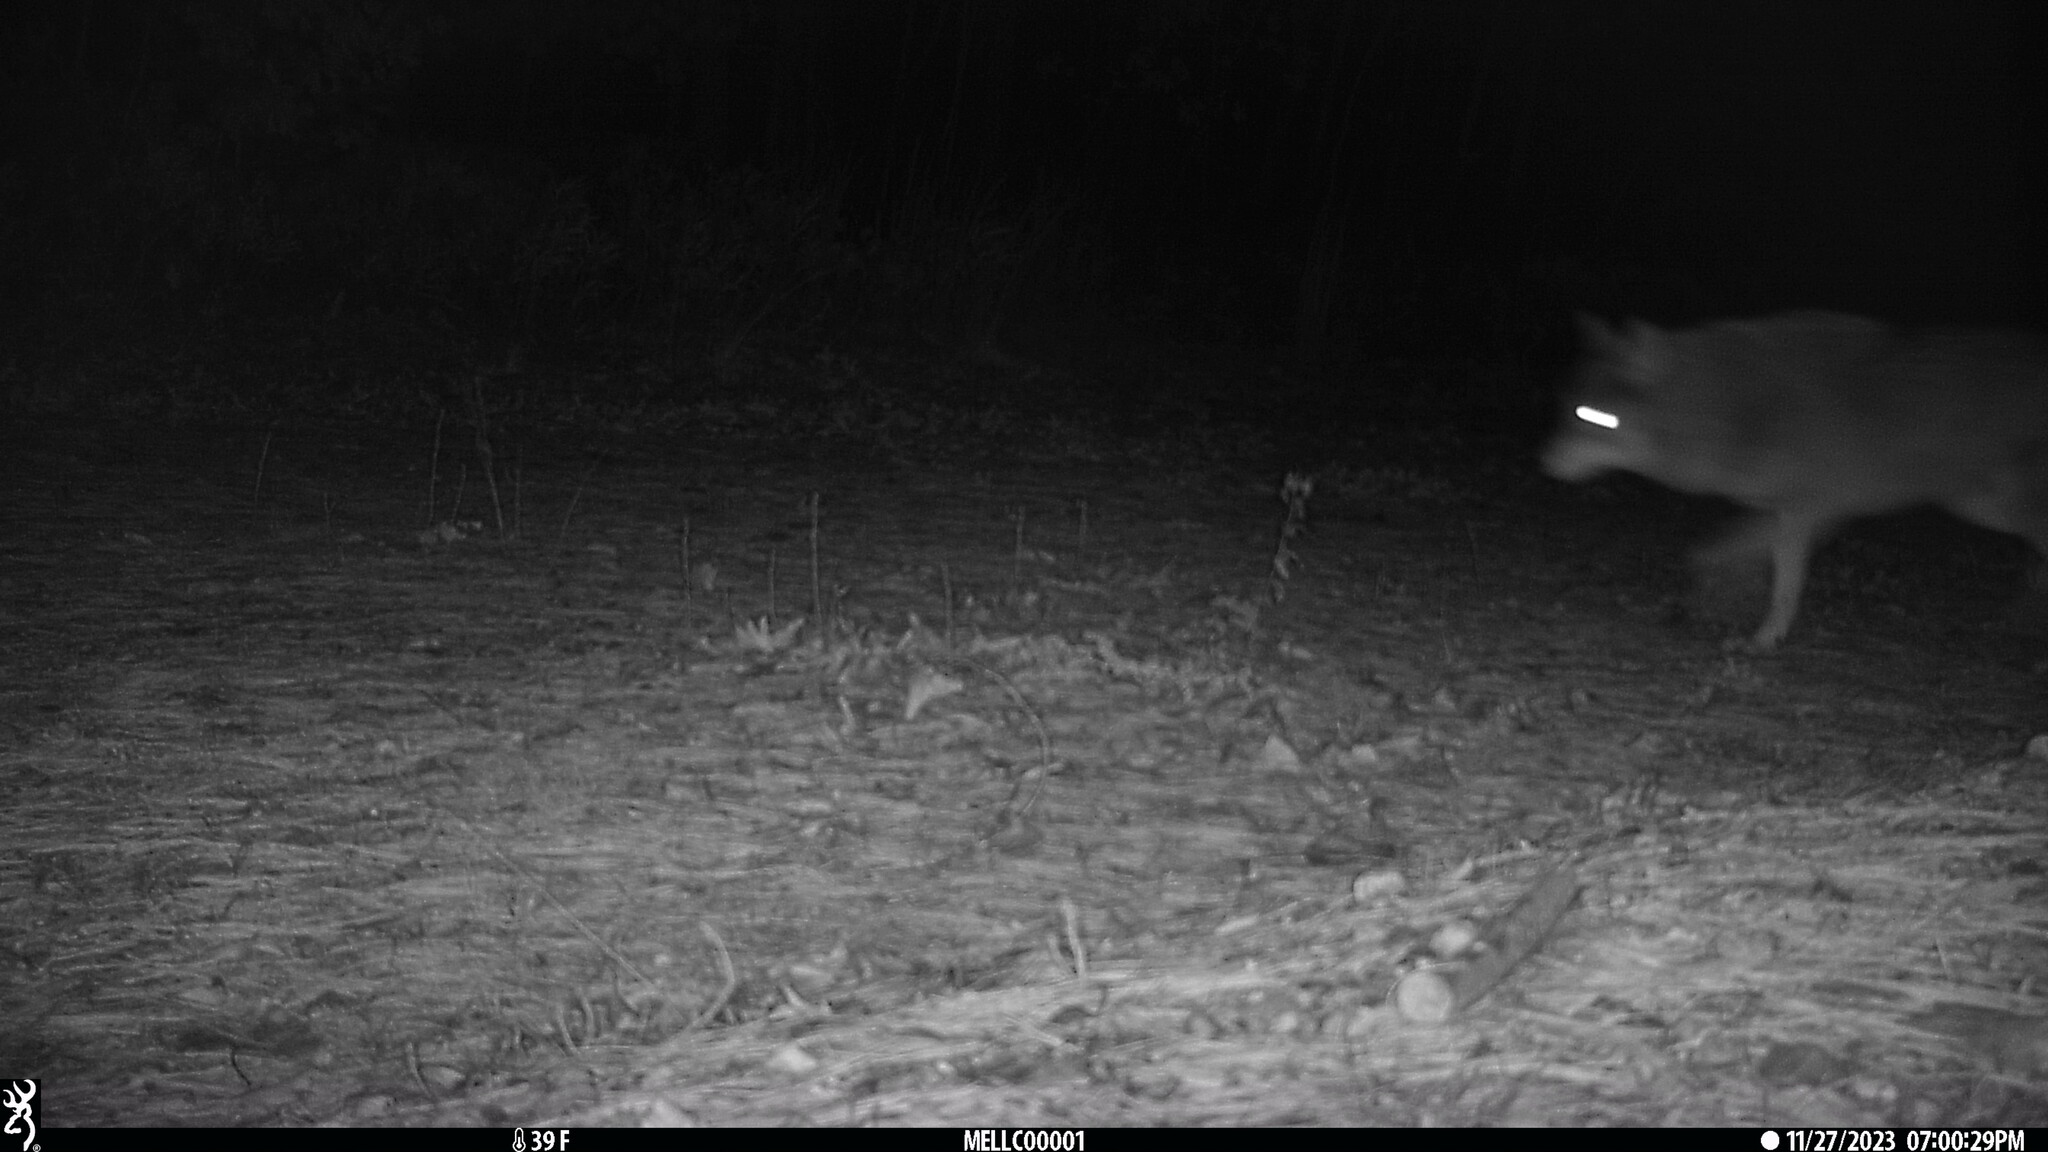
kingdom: Animalia
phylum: Chordata
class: Mammalia
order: Carnivora
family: Canidae
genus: Canis
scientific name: Canis latrans
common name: Coyote
